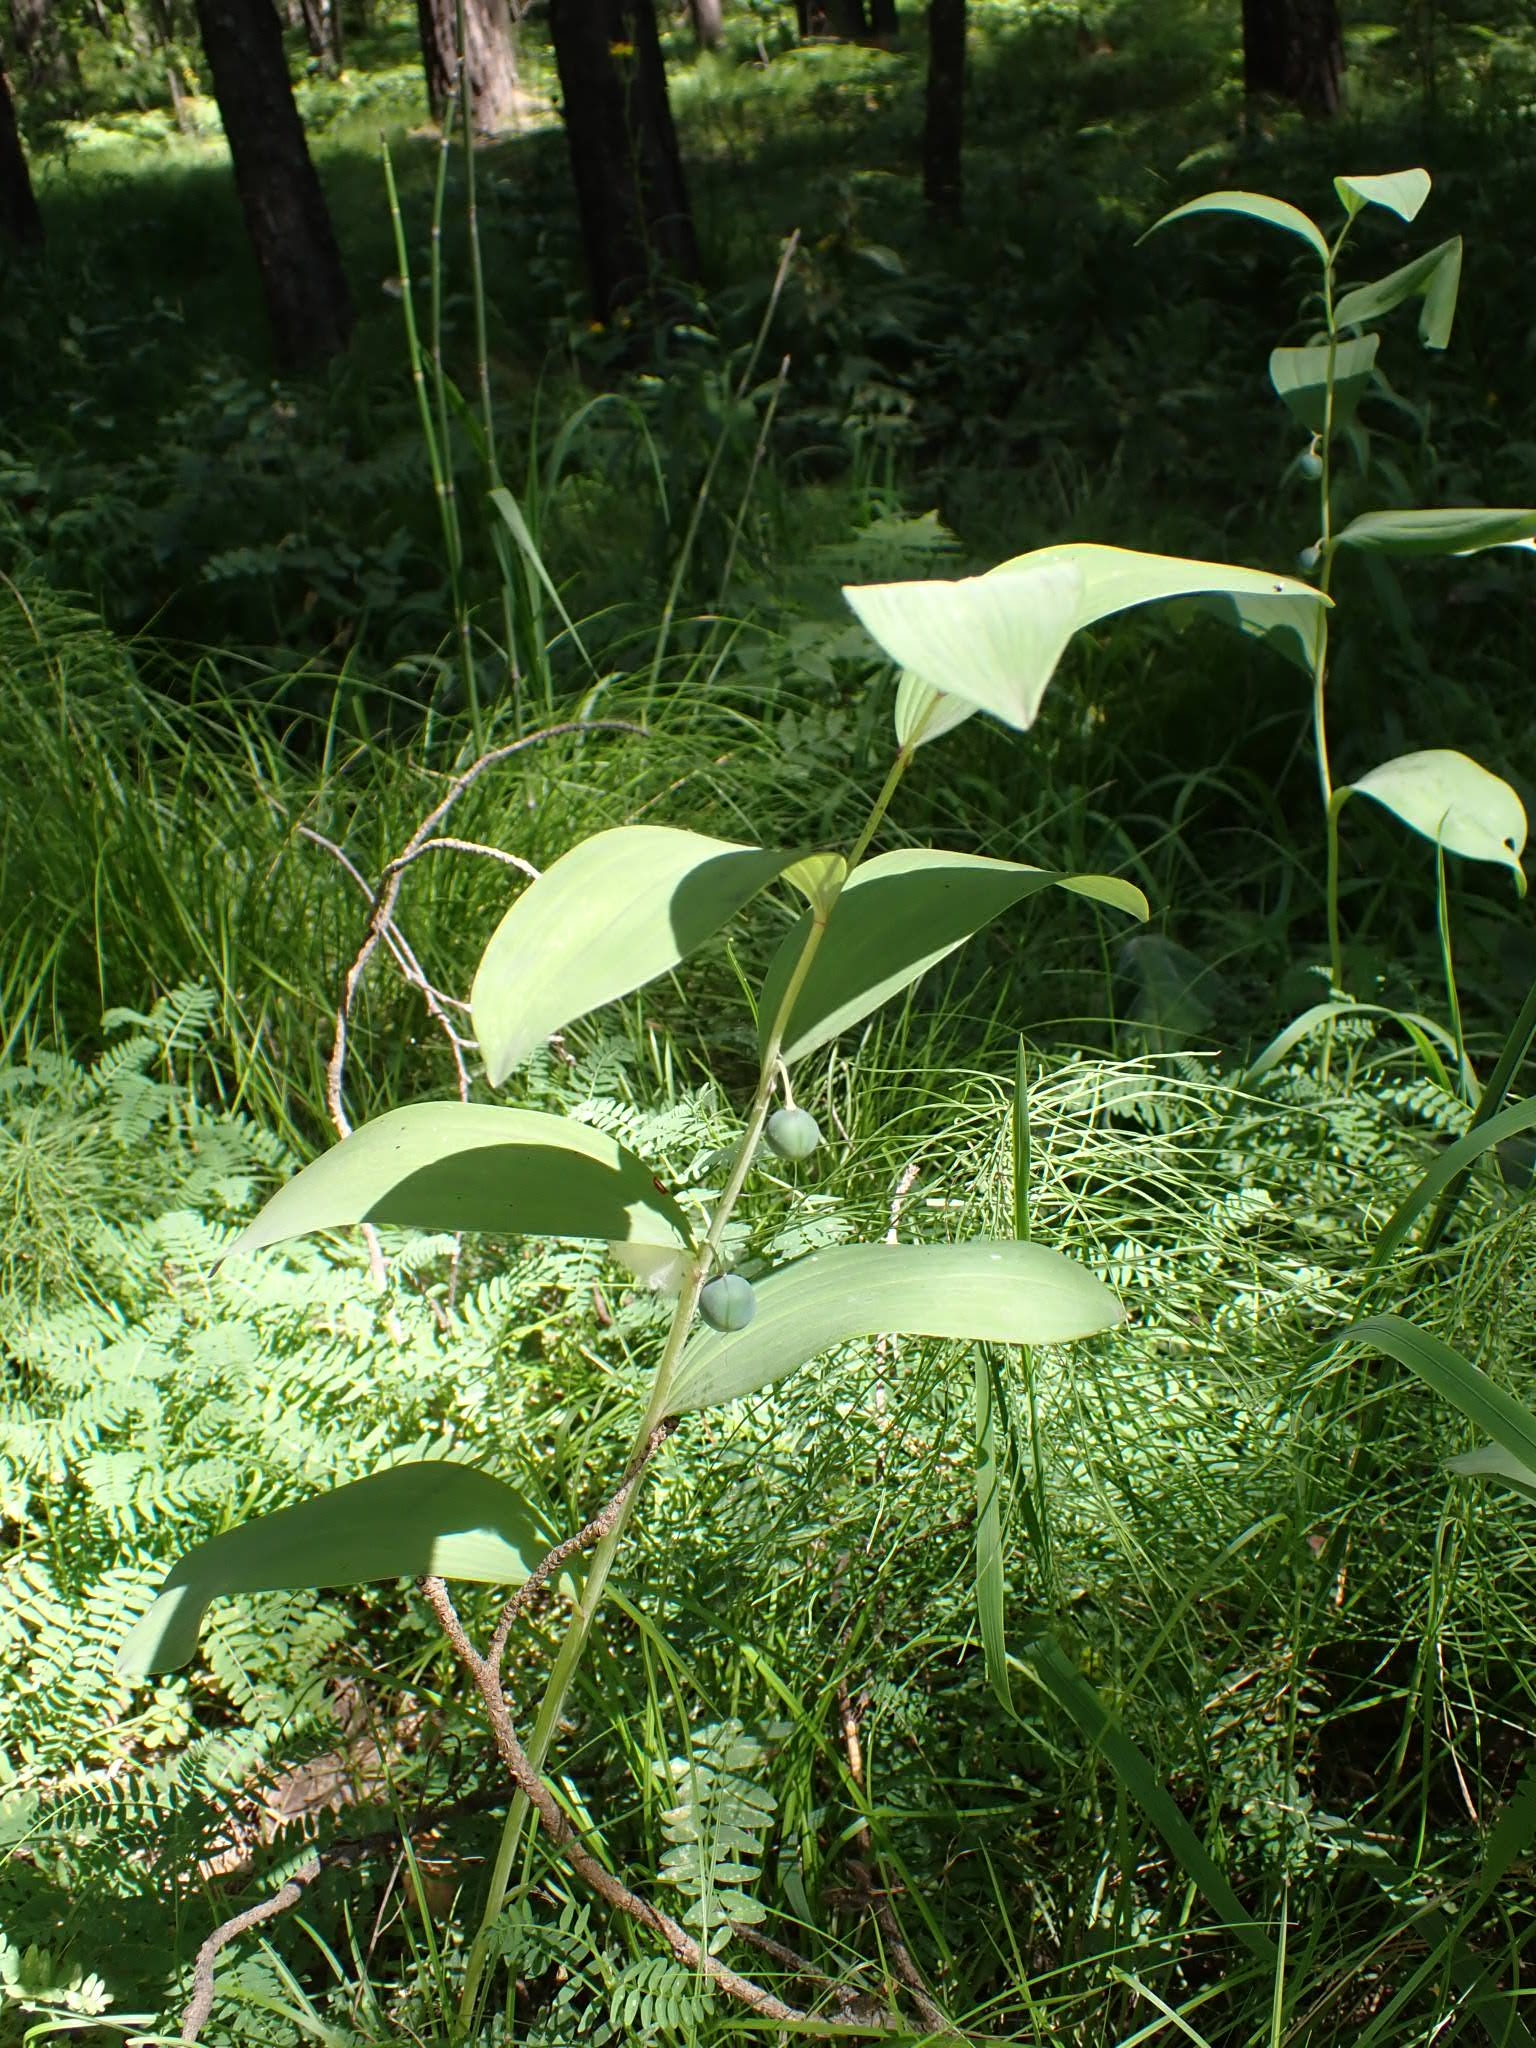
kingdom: Plantae
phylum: Tracheophyta
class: Liliopsida
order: Asparagales
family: Asparagaceae
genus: Polygonatum
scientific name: Polygonatum odoratum
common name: Angular solomon's-seal
